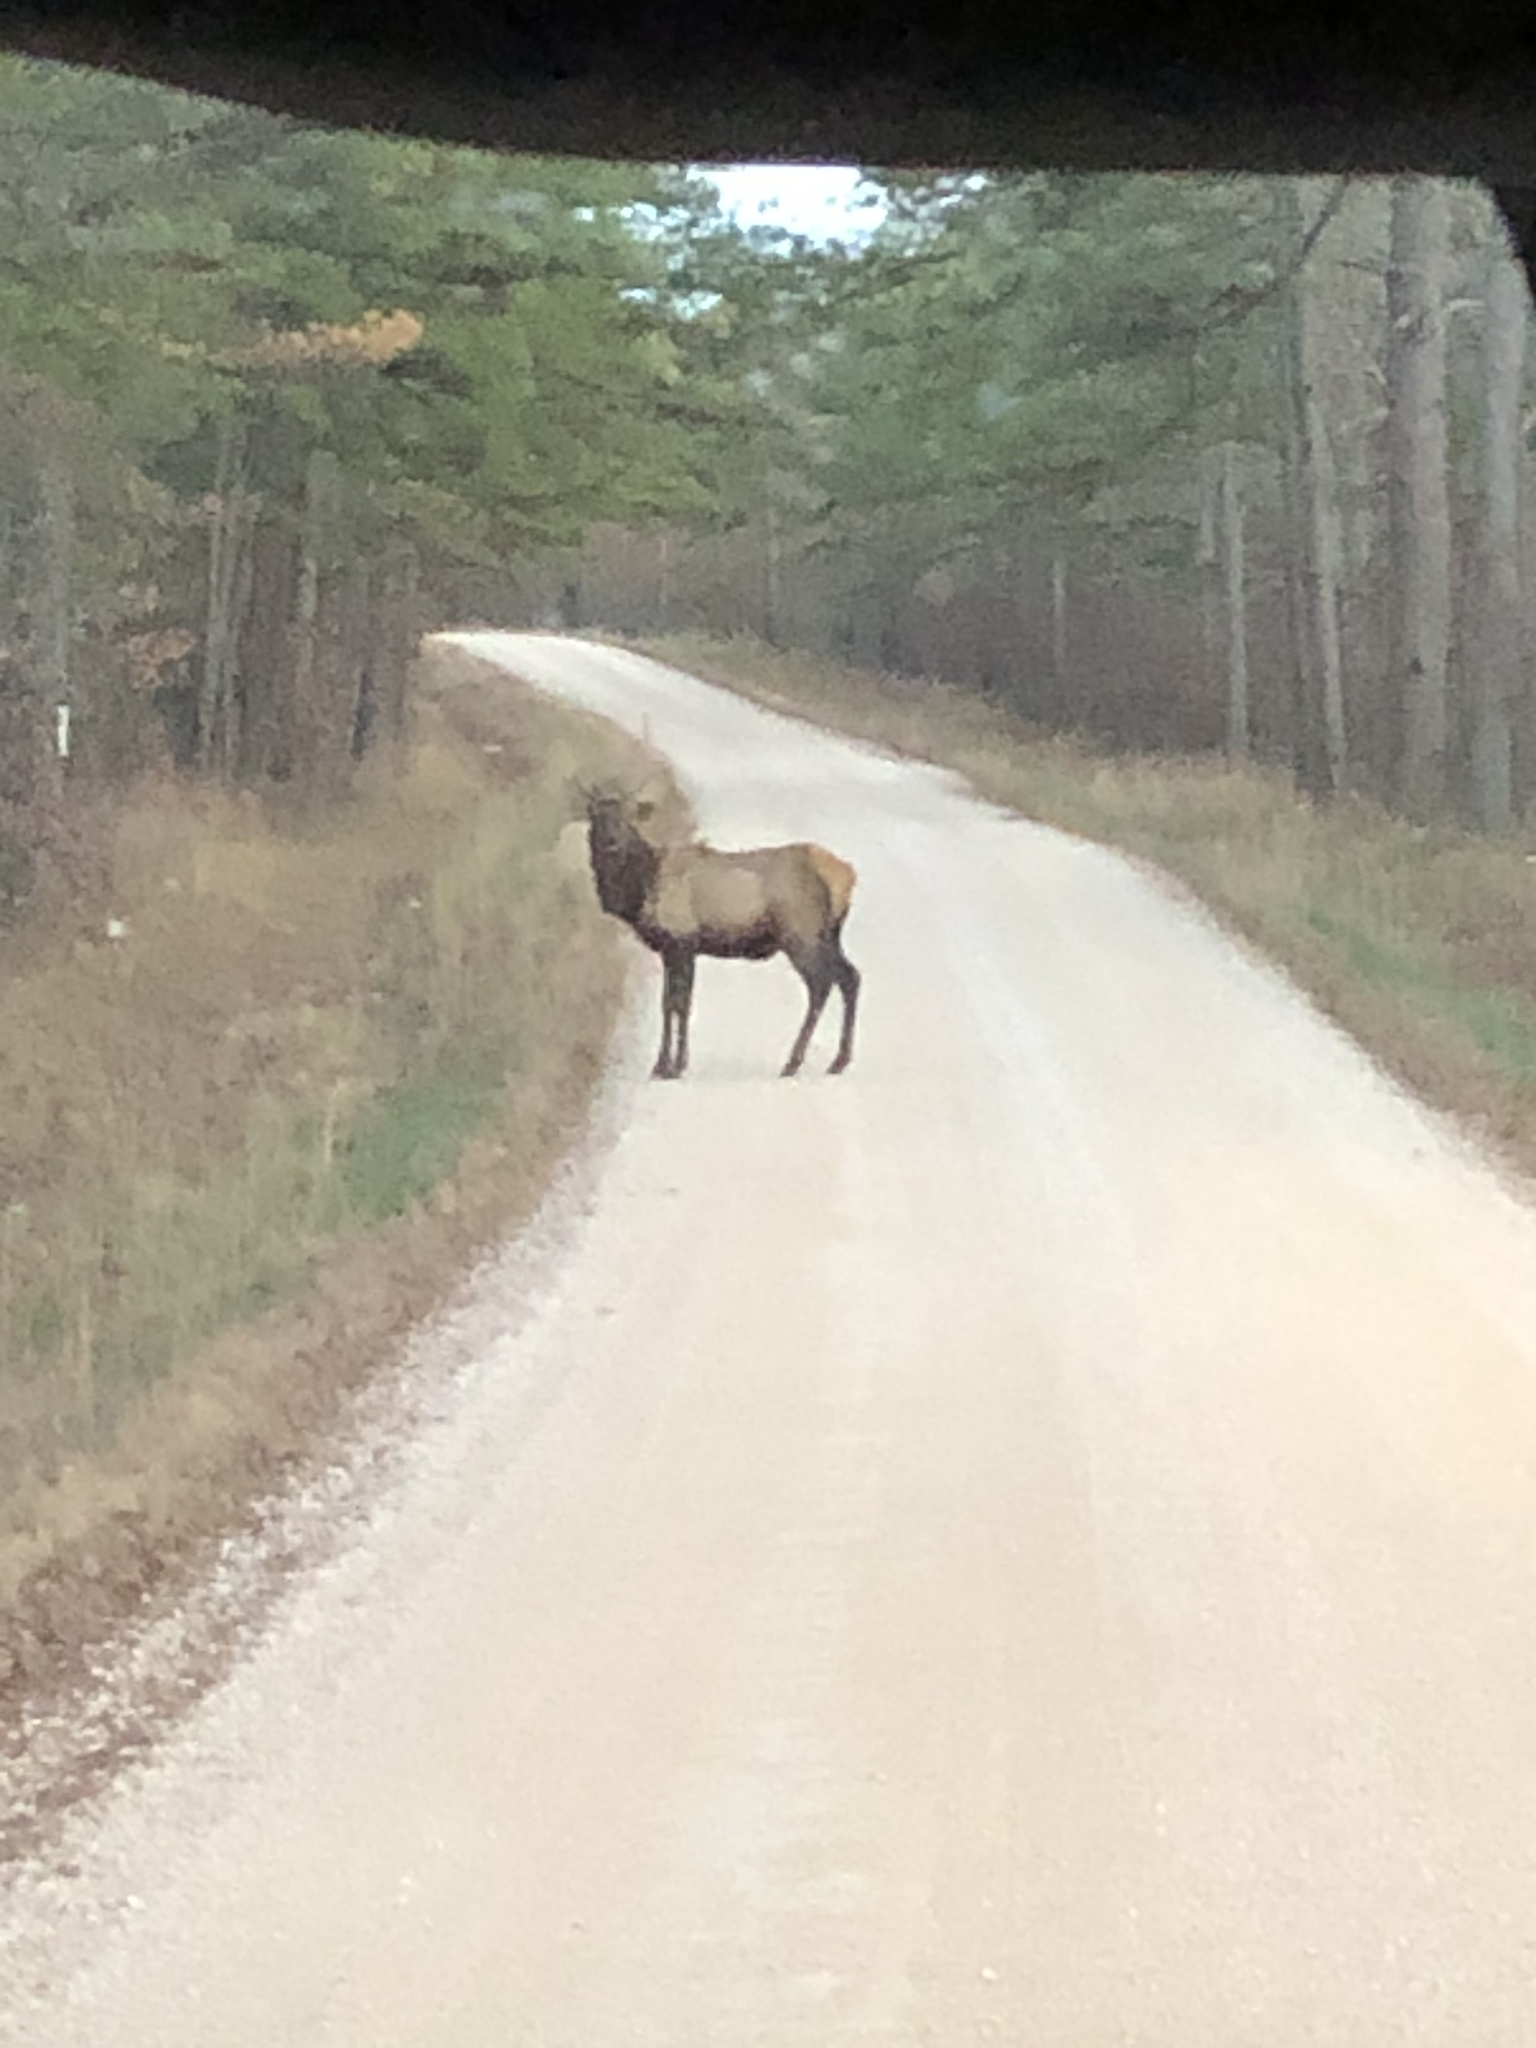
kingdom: Animalia
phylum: Chordata
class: Mammalia
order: Artiodactyla
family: Cervidae
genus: Cervus
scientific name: Cervus elaphus
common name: Red deer
